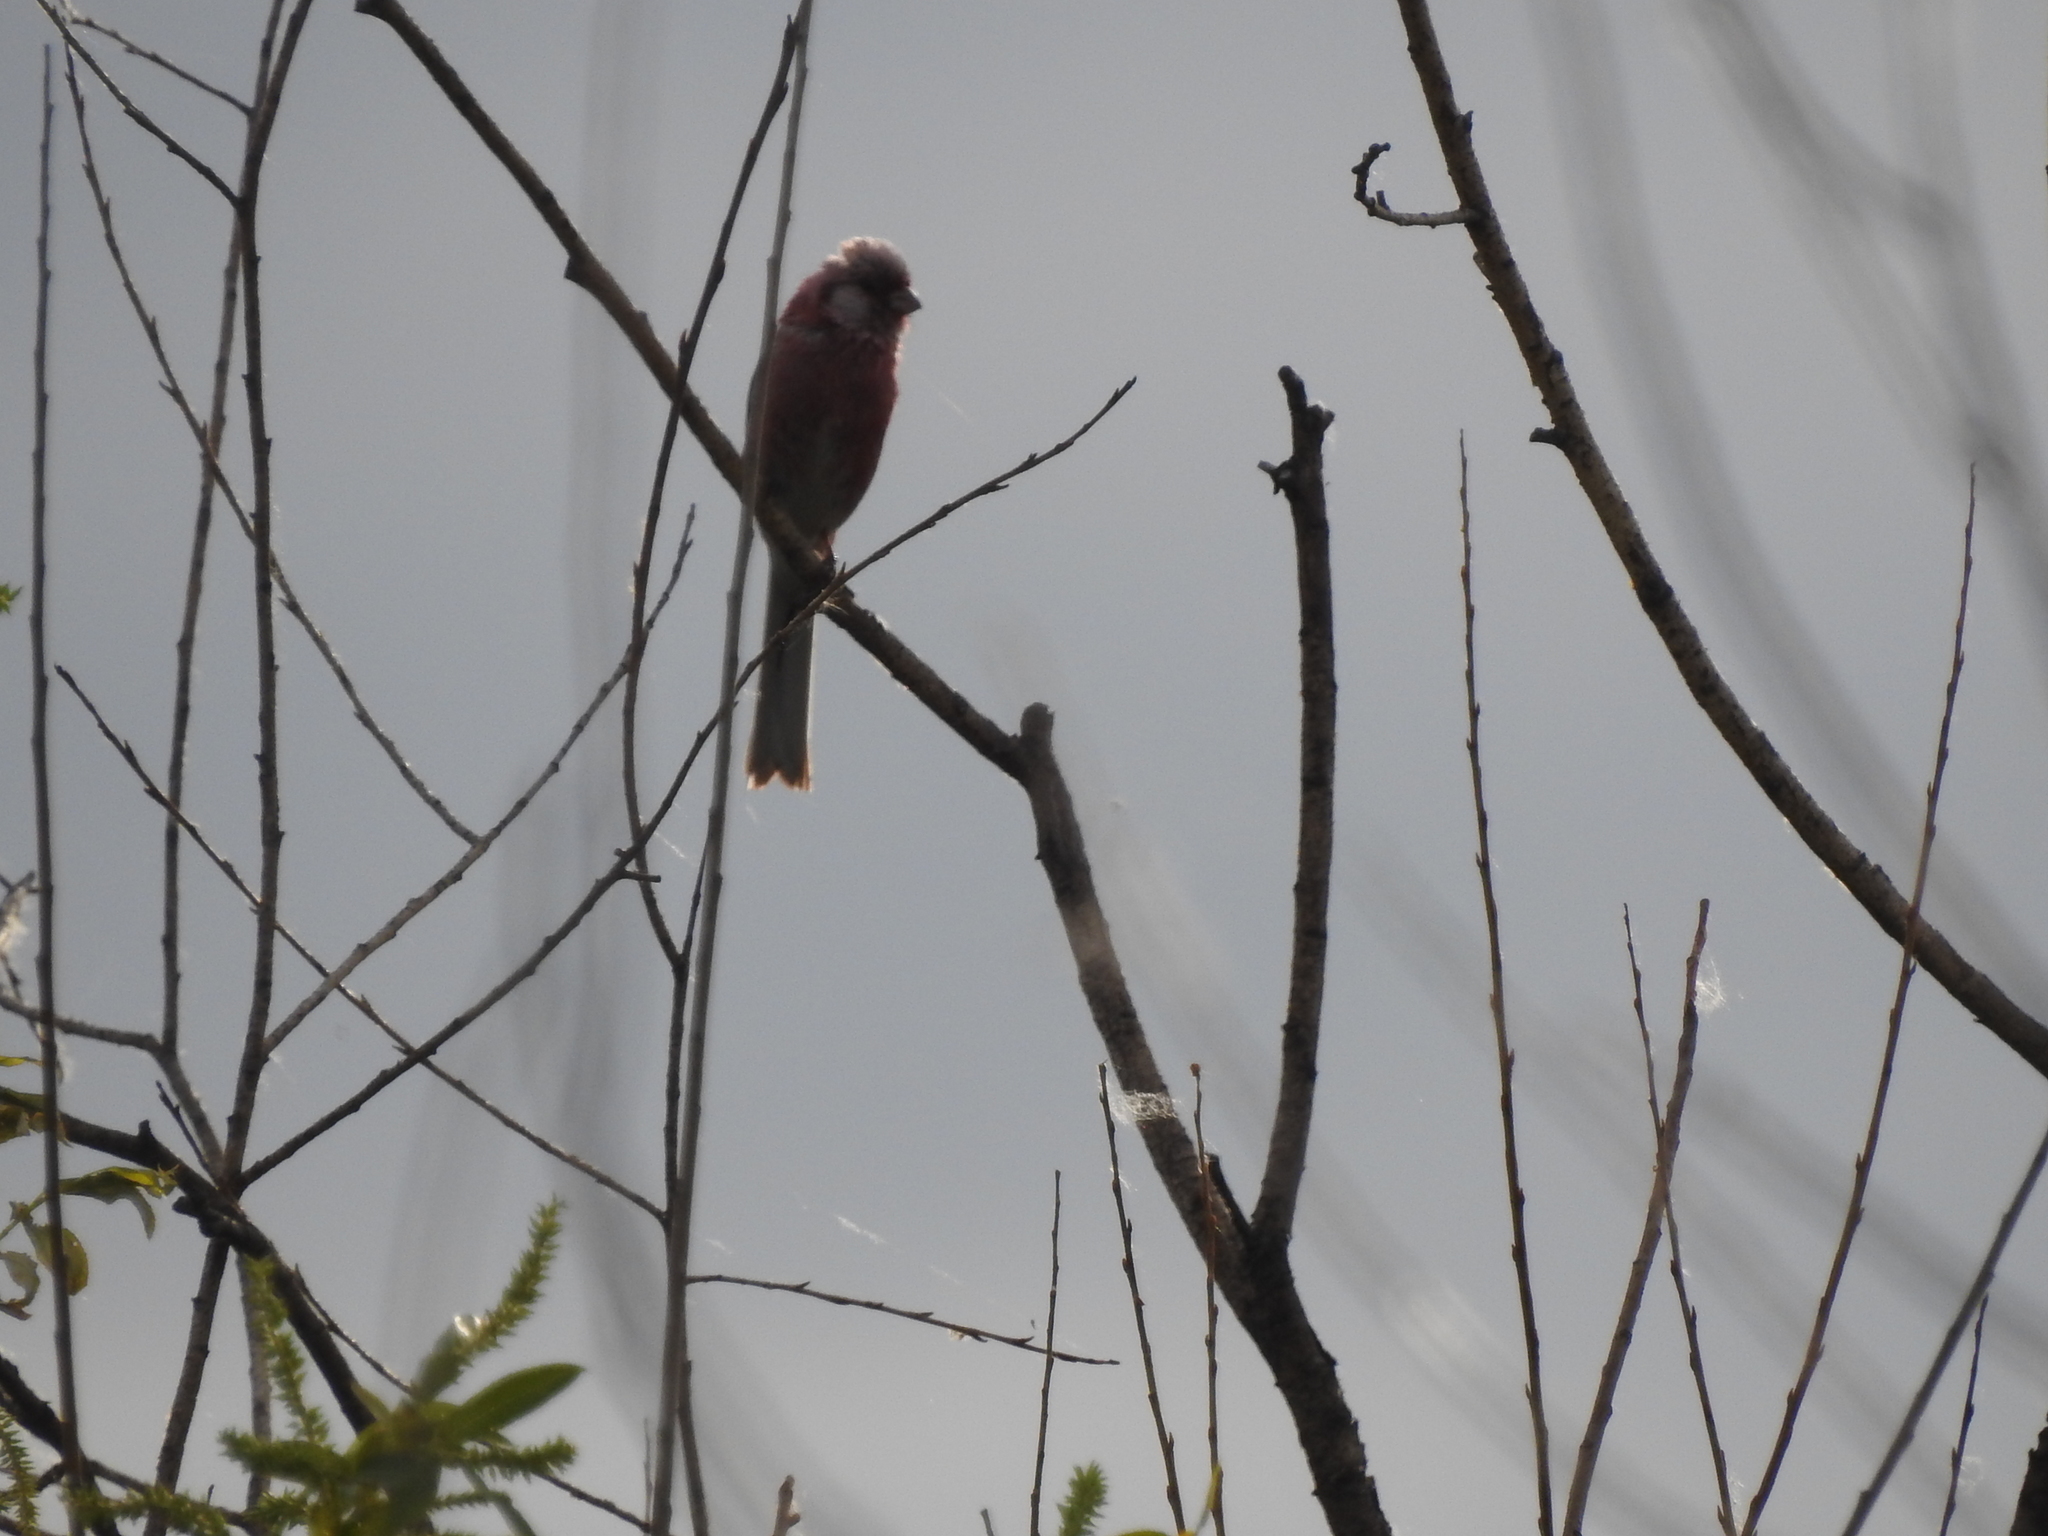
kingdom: Animalia
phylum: Chordata
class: Aves
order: Passeriformes
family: Fringillidae
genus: Carpodacus
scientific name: Carpodacus sibiricus
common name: Long-tailed rosefinch
